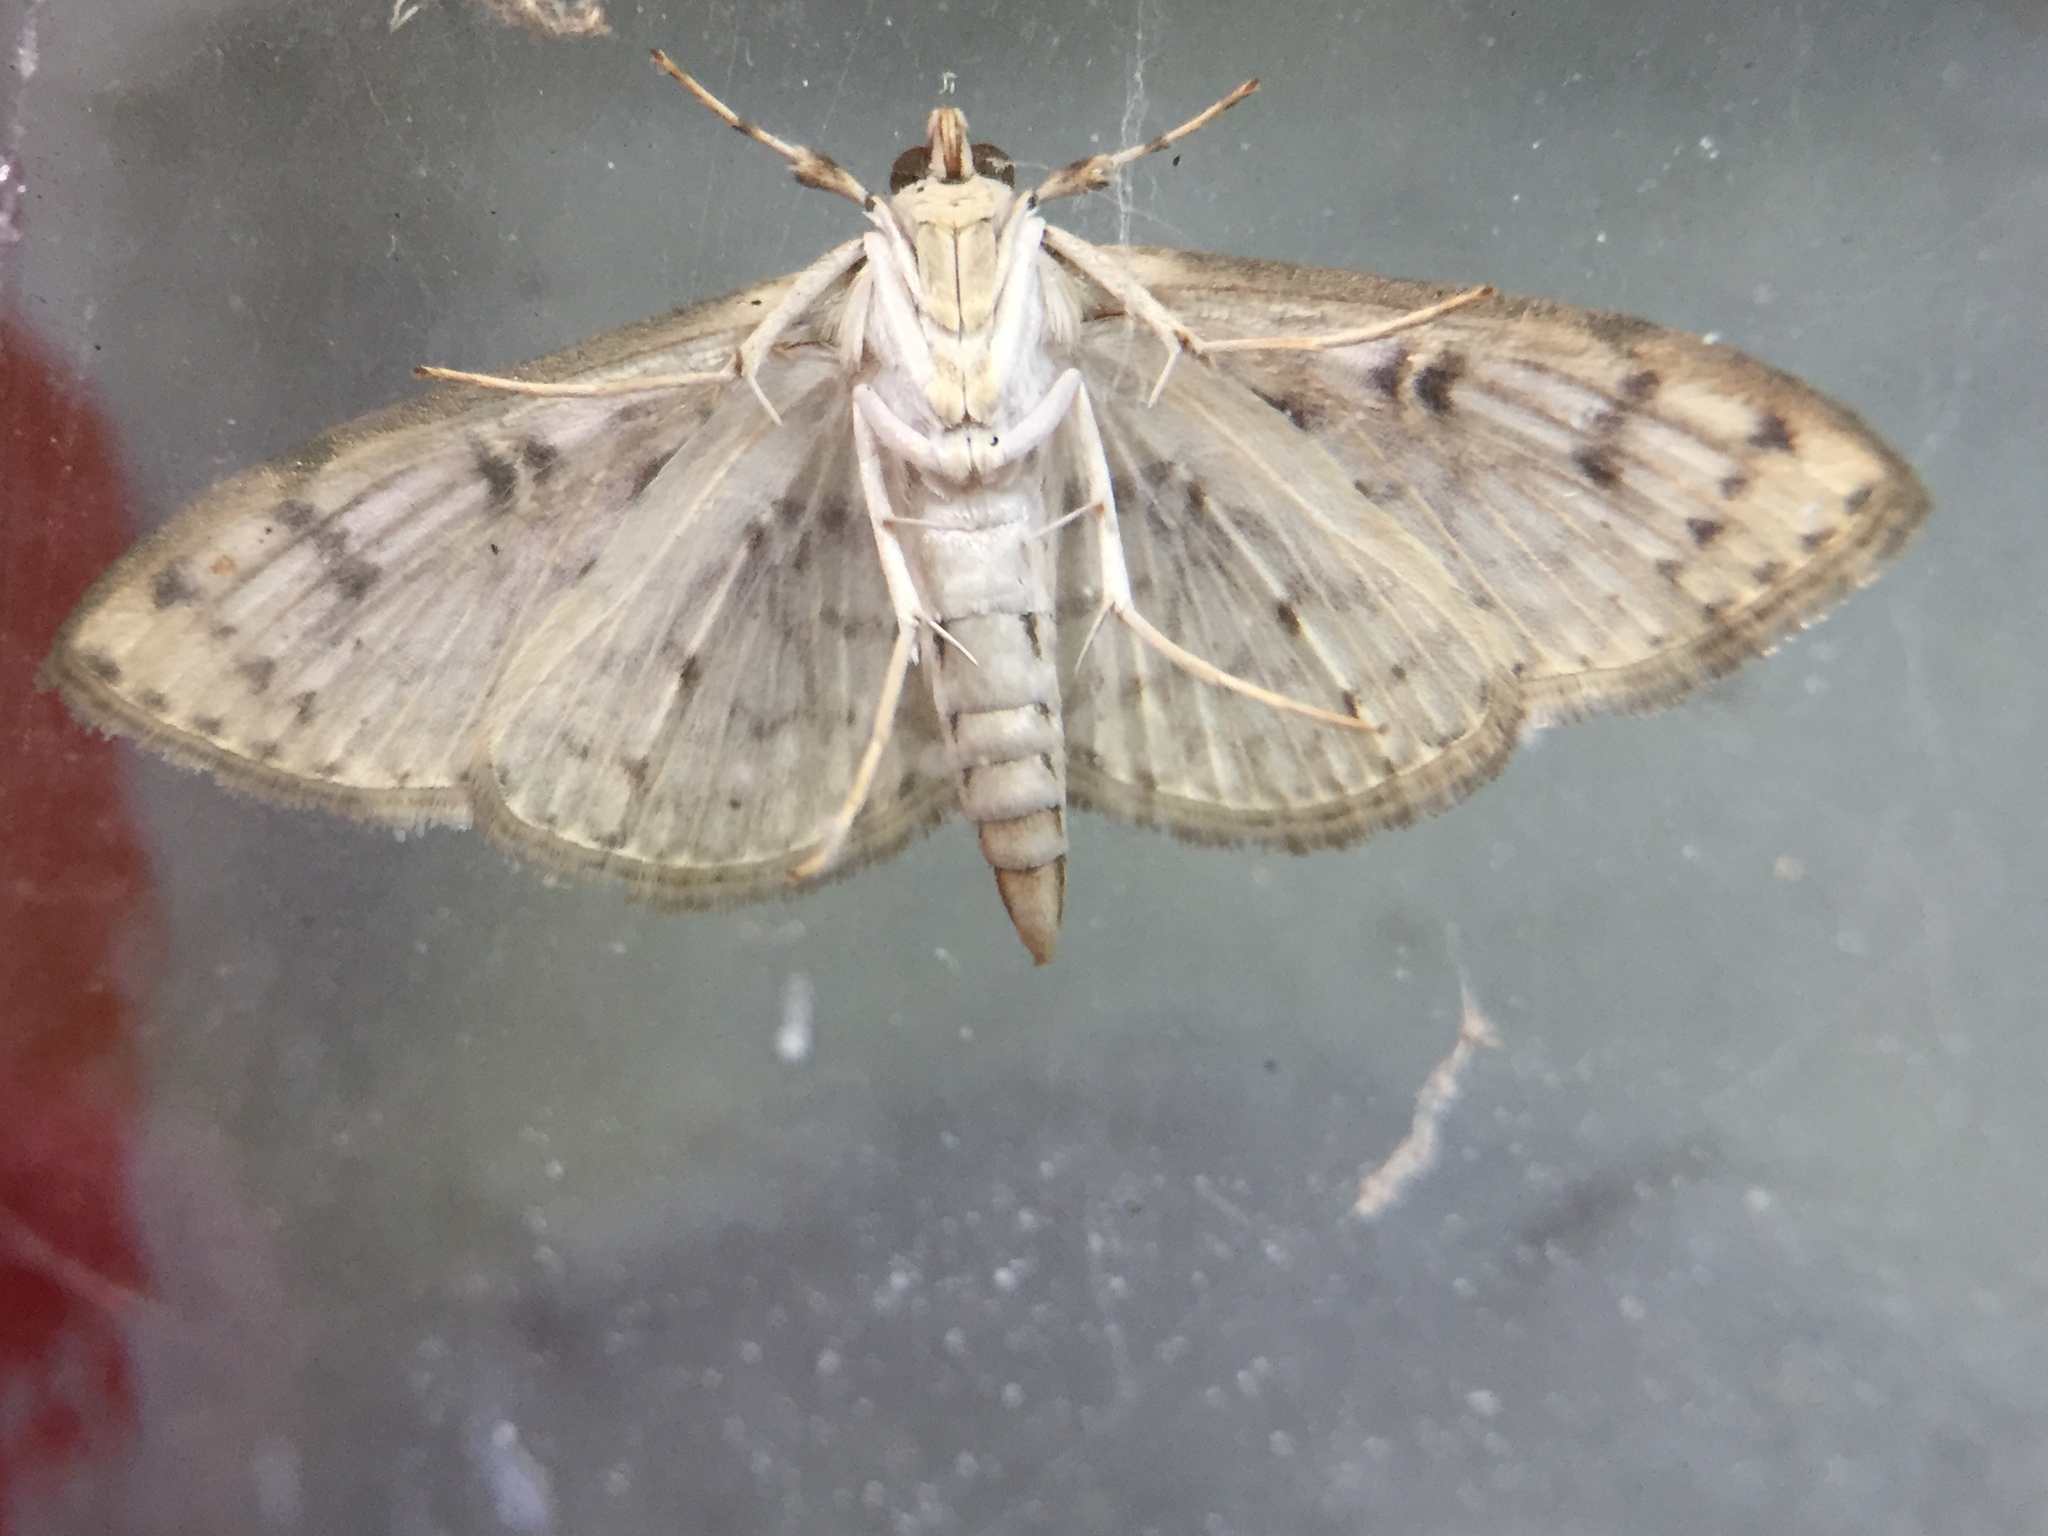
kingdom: Animalia
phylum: Arthropoda
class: Insecta
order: Lepidoptera
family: Crambidae
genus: Haritalodes
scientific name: Haritalodes derogata
